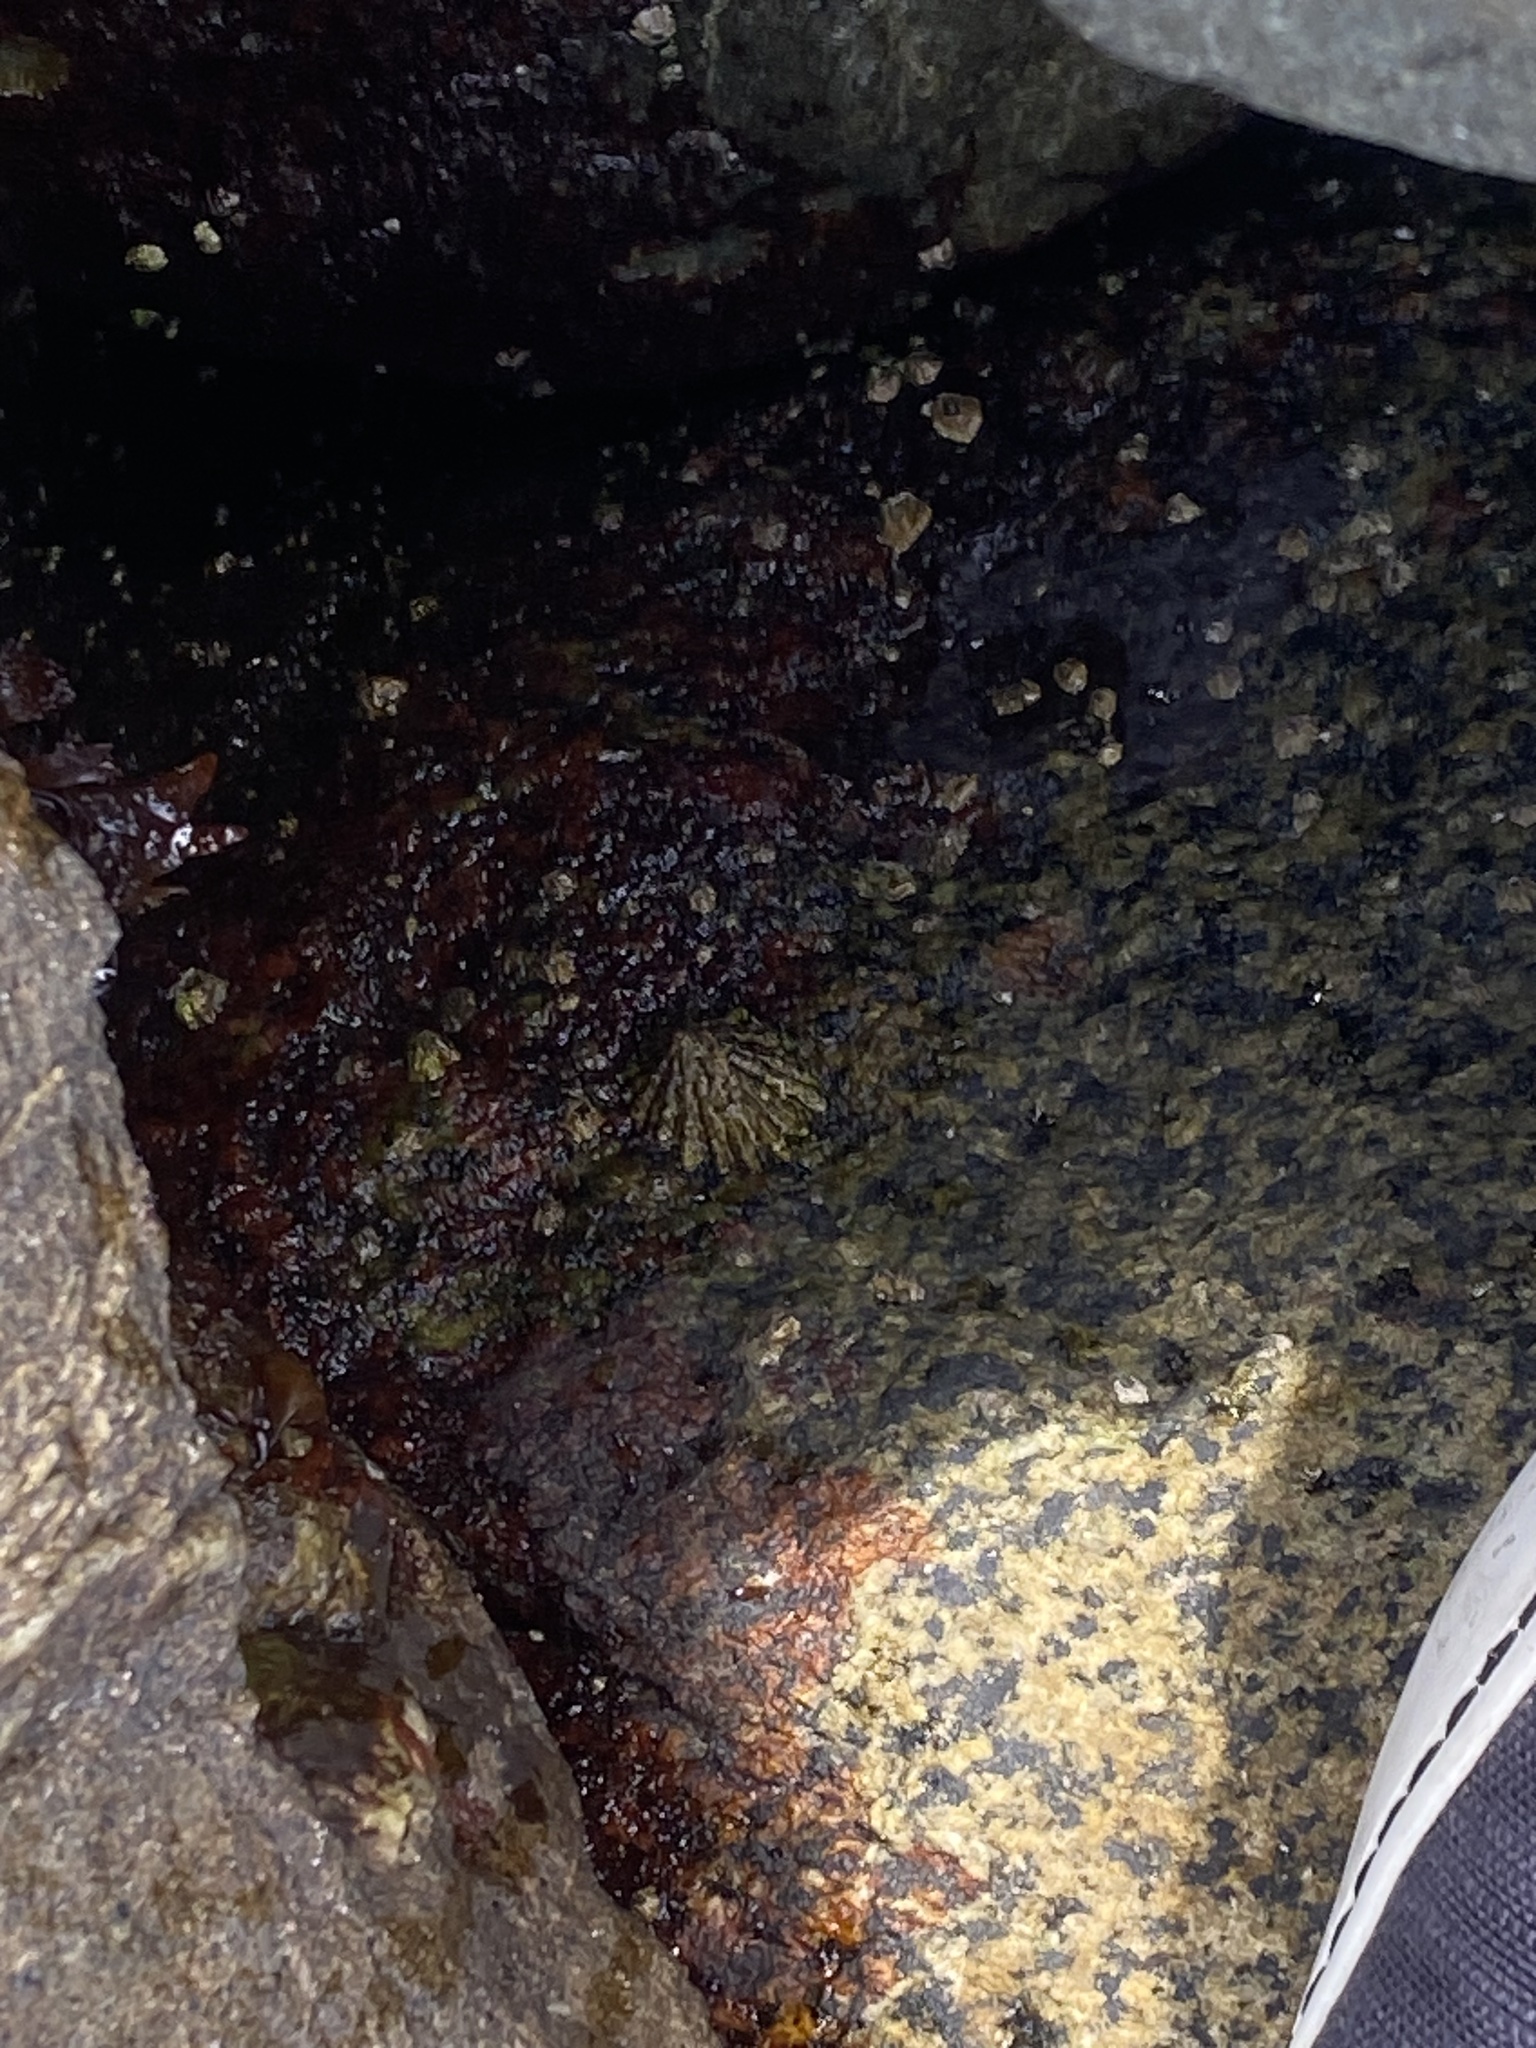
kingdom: Animalia
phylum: Mollusca
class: Gastropoda
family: Lottiidae
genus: Lottia
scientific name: Lottia scabra
